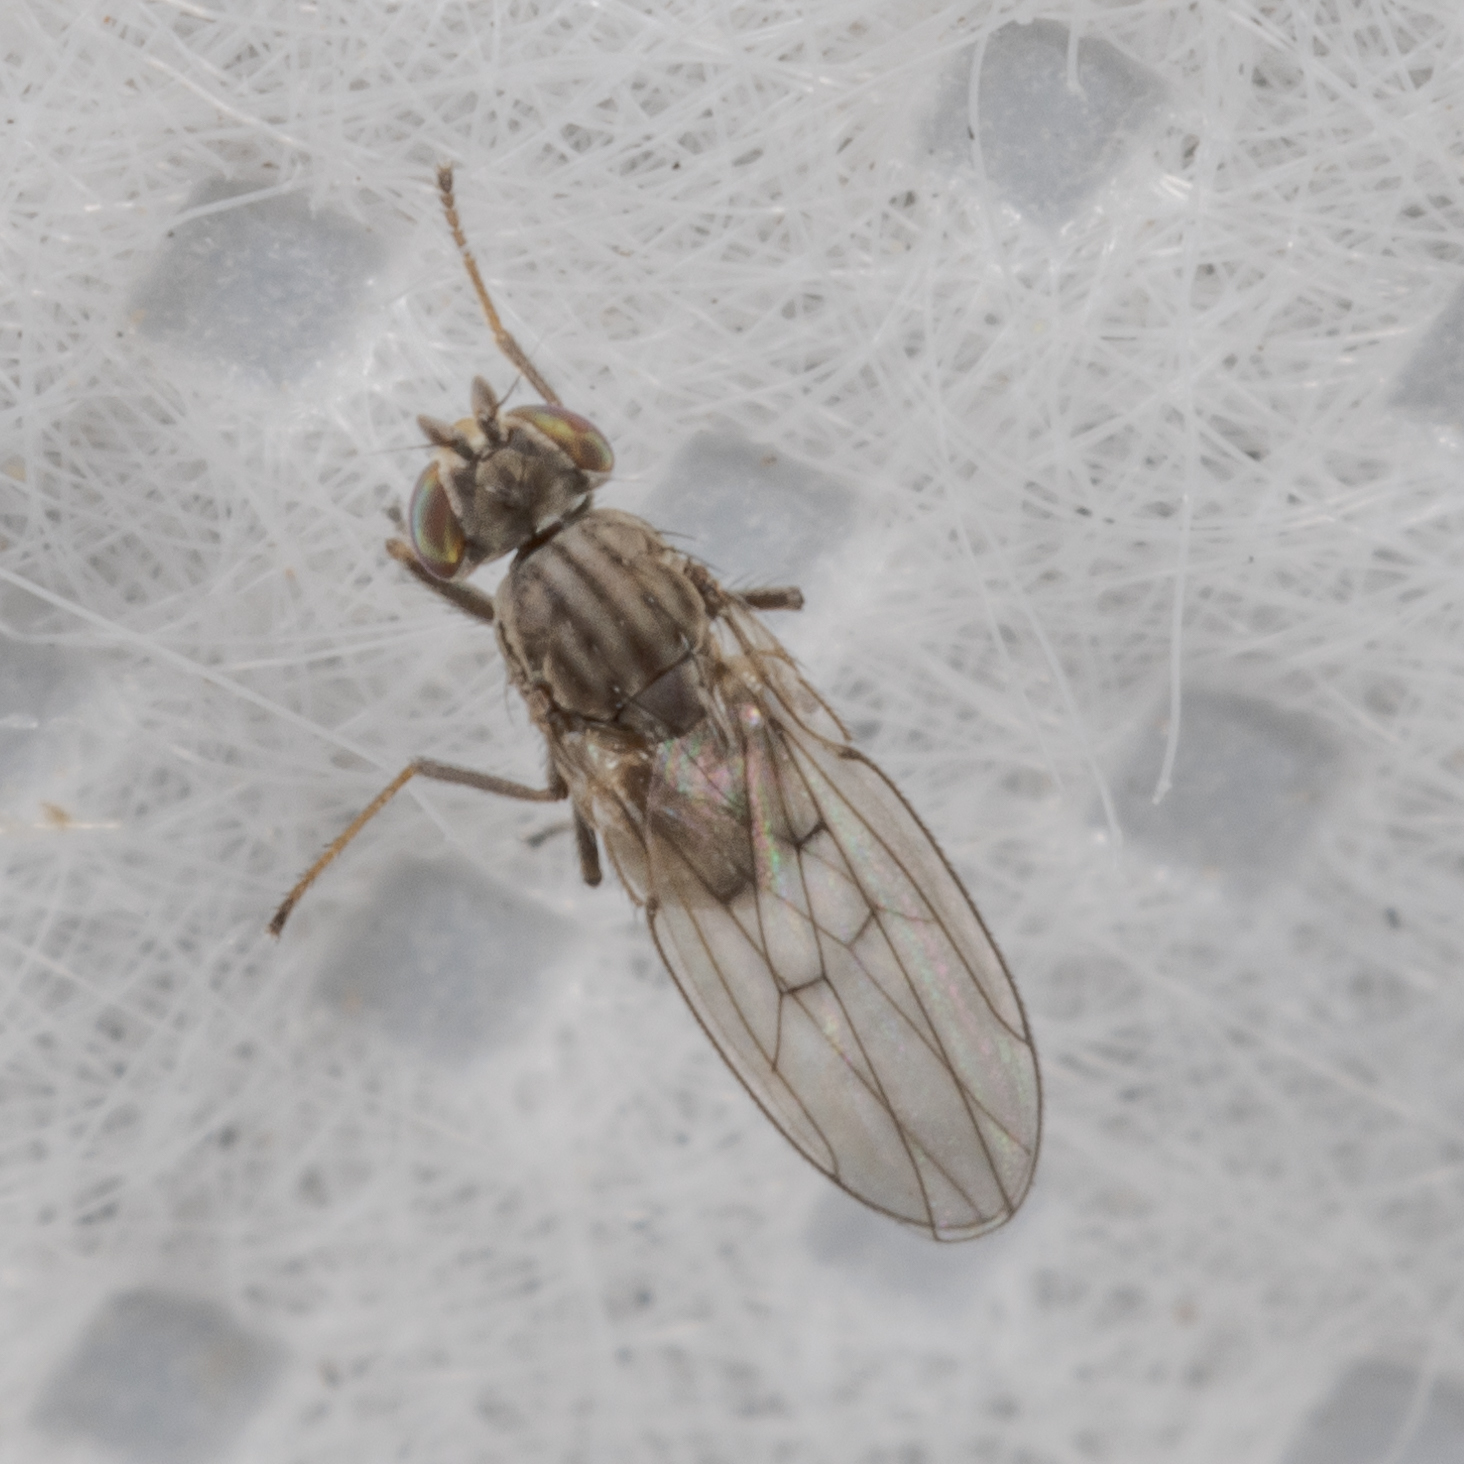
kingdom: Animalia
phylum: Arthropoda
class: Insecta
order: Diptera
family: Ephydridae
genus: Philygria
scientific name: Philygria debilis
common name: Brine fly
